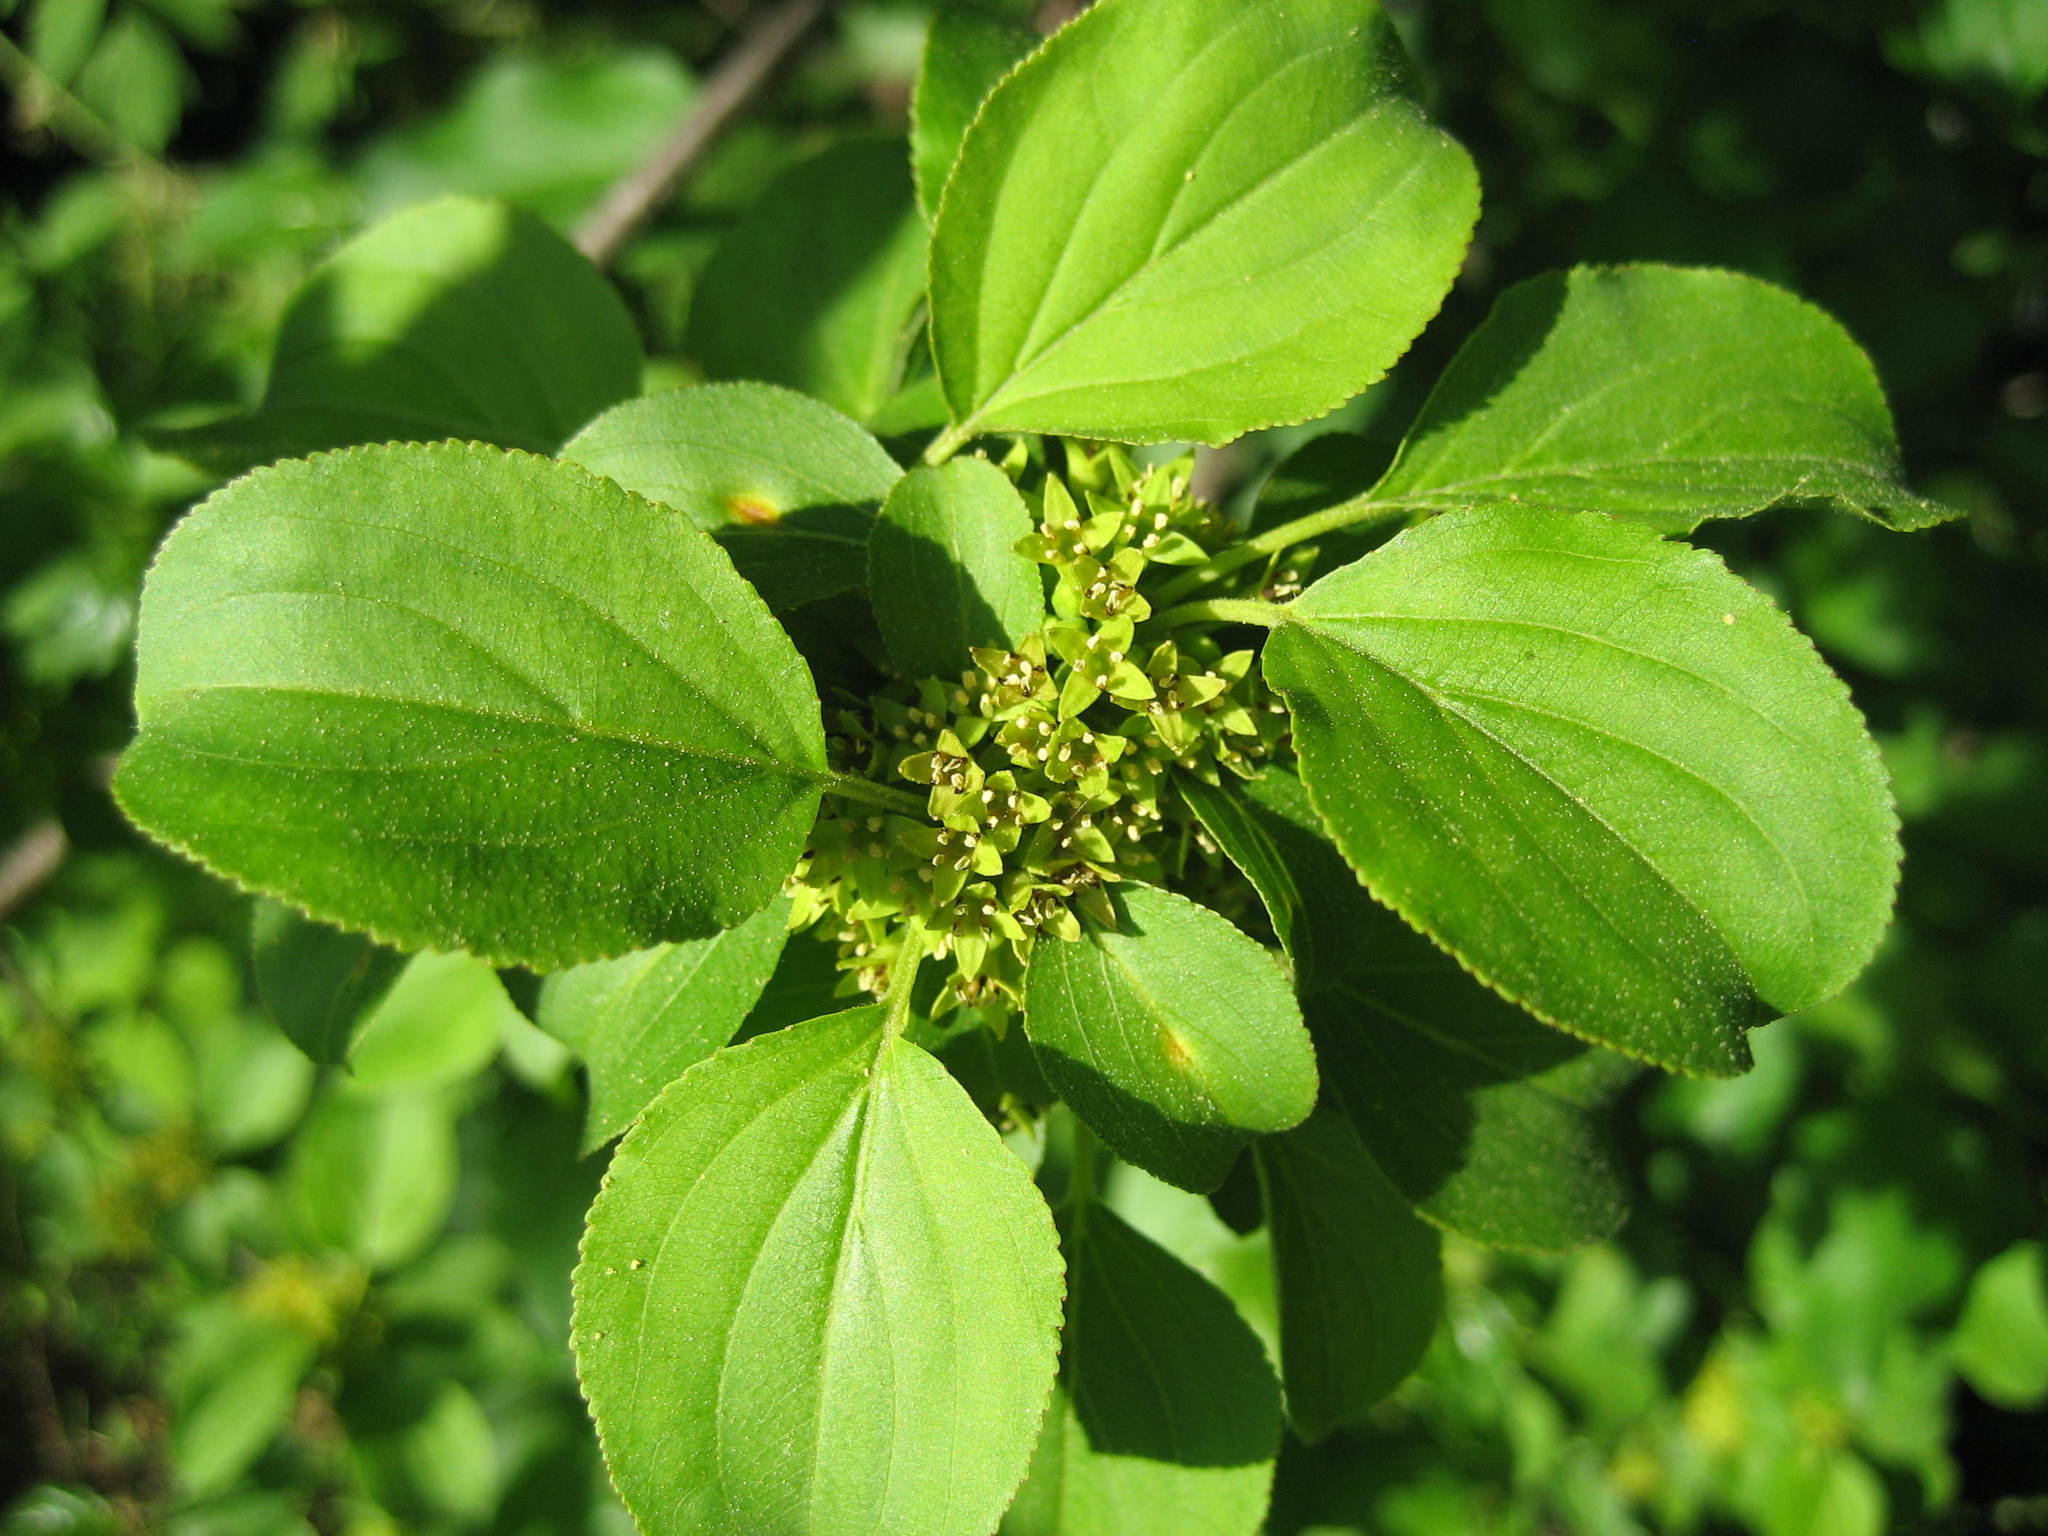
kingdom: Plantae
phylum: Tracheophyta
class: Magnoliopsida
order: Rosales
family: Rhamnaceae
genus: Rhamnus
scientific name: Rhamnus cathartica
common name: Common buckthorn
